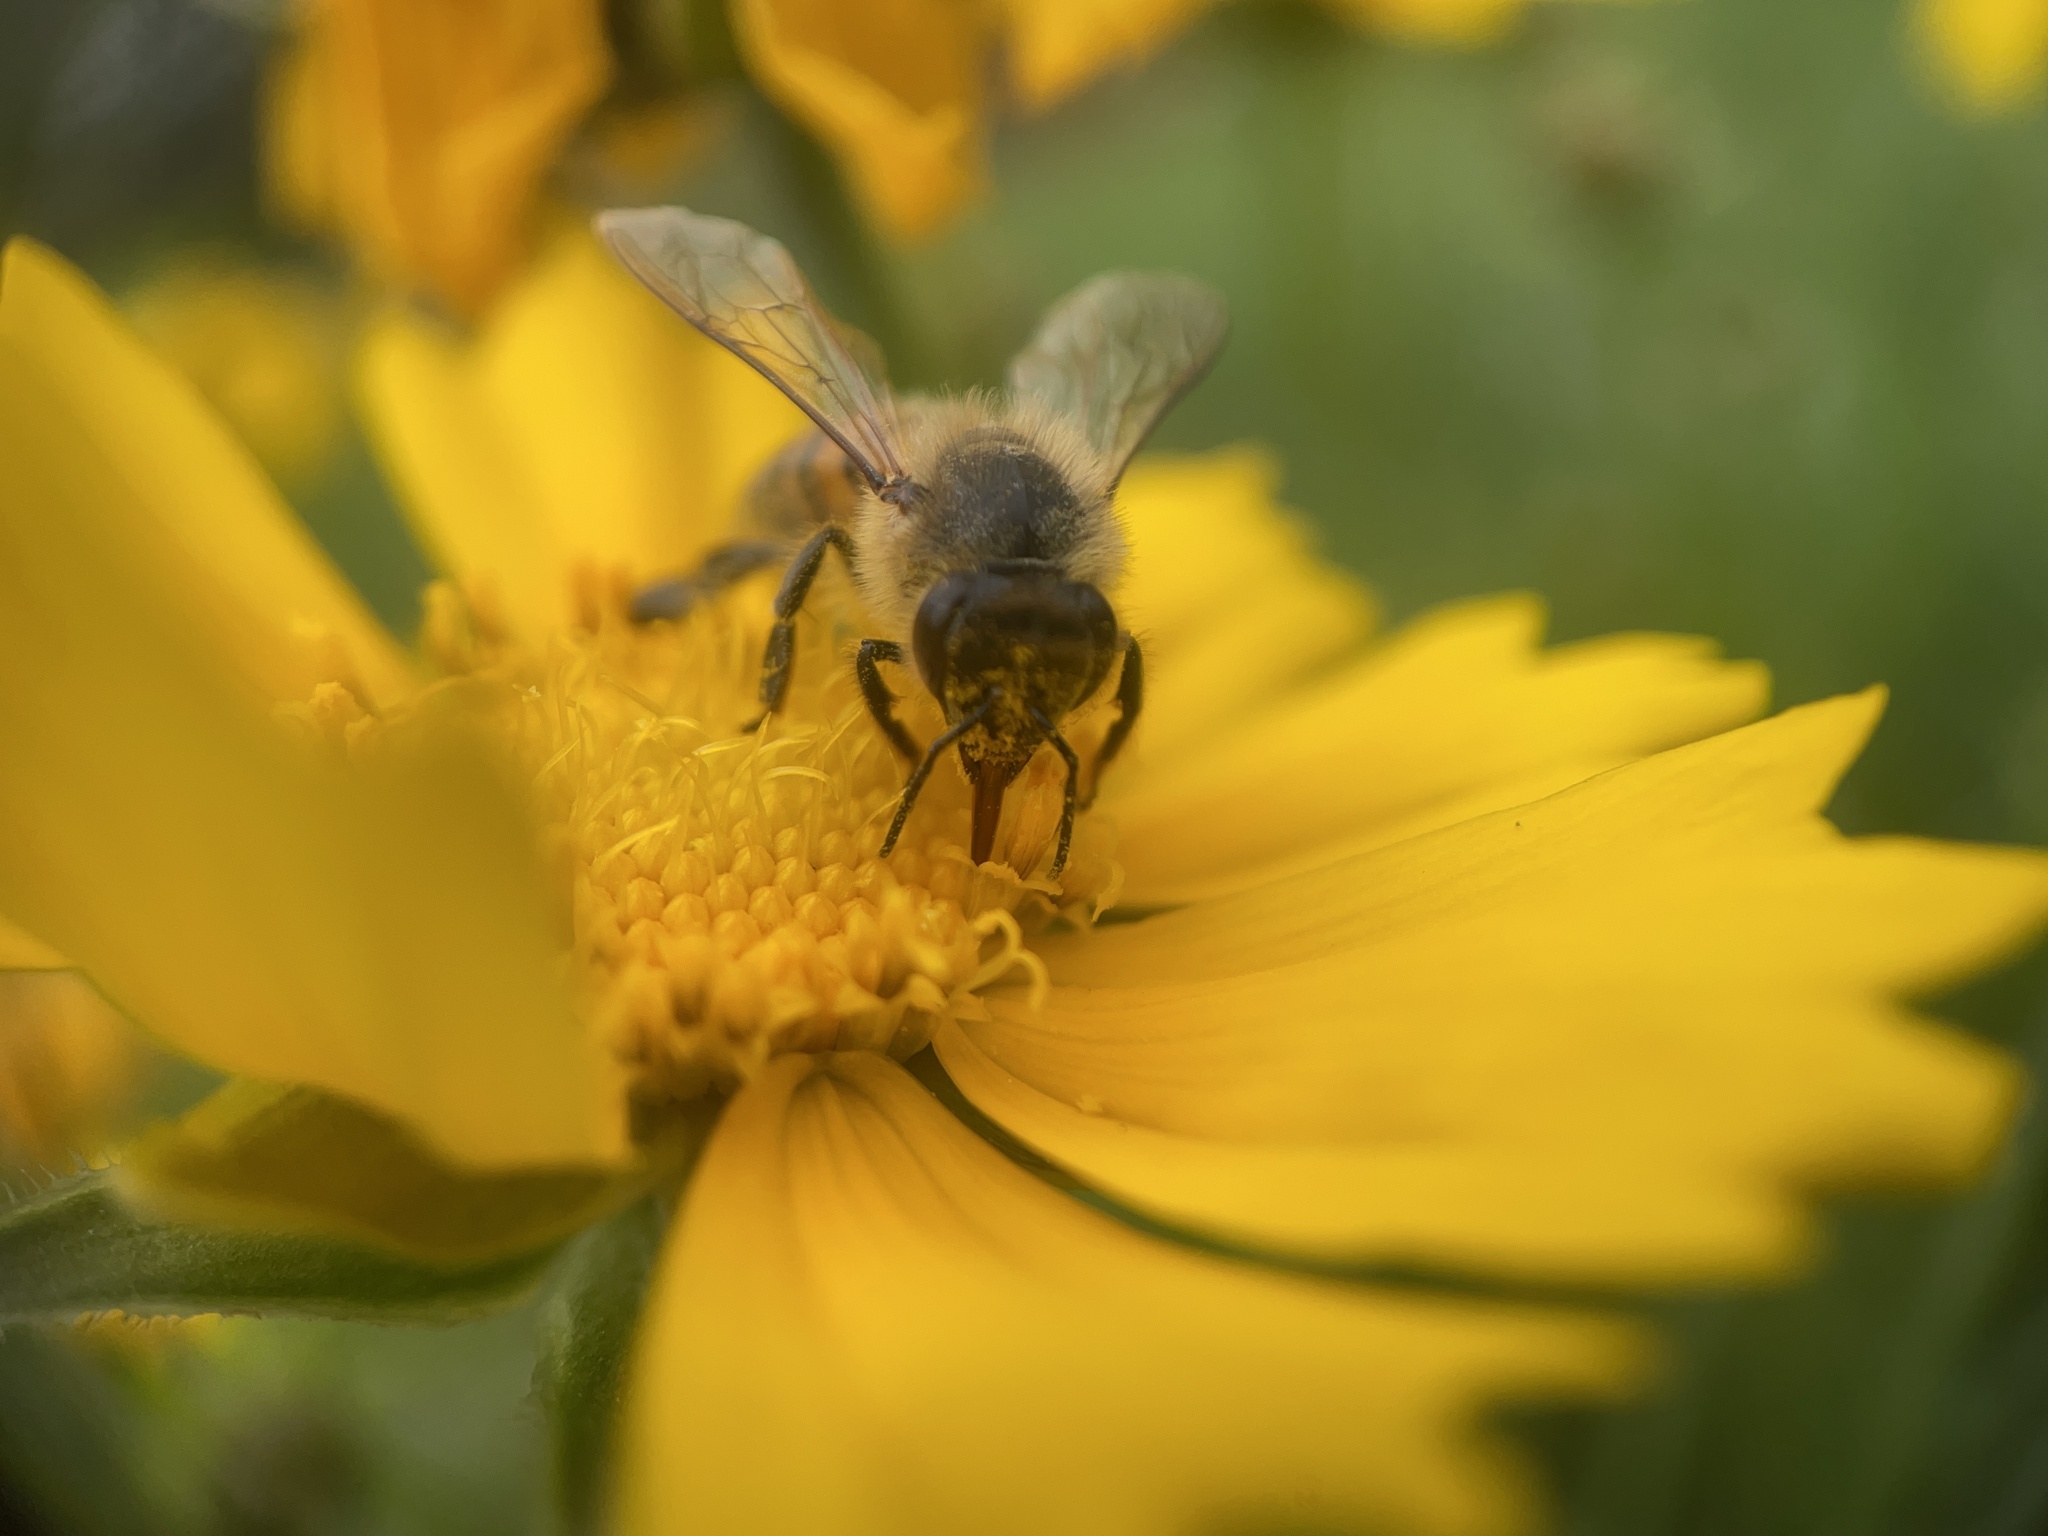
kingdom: Animalia
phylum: Arthropoda
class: Insecta
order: Hymenoptera
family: Apidae
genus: Apis
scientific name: Apis mellifera
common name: Honey bee
